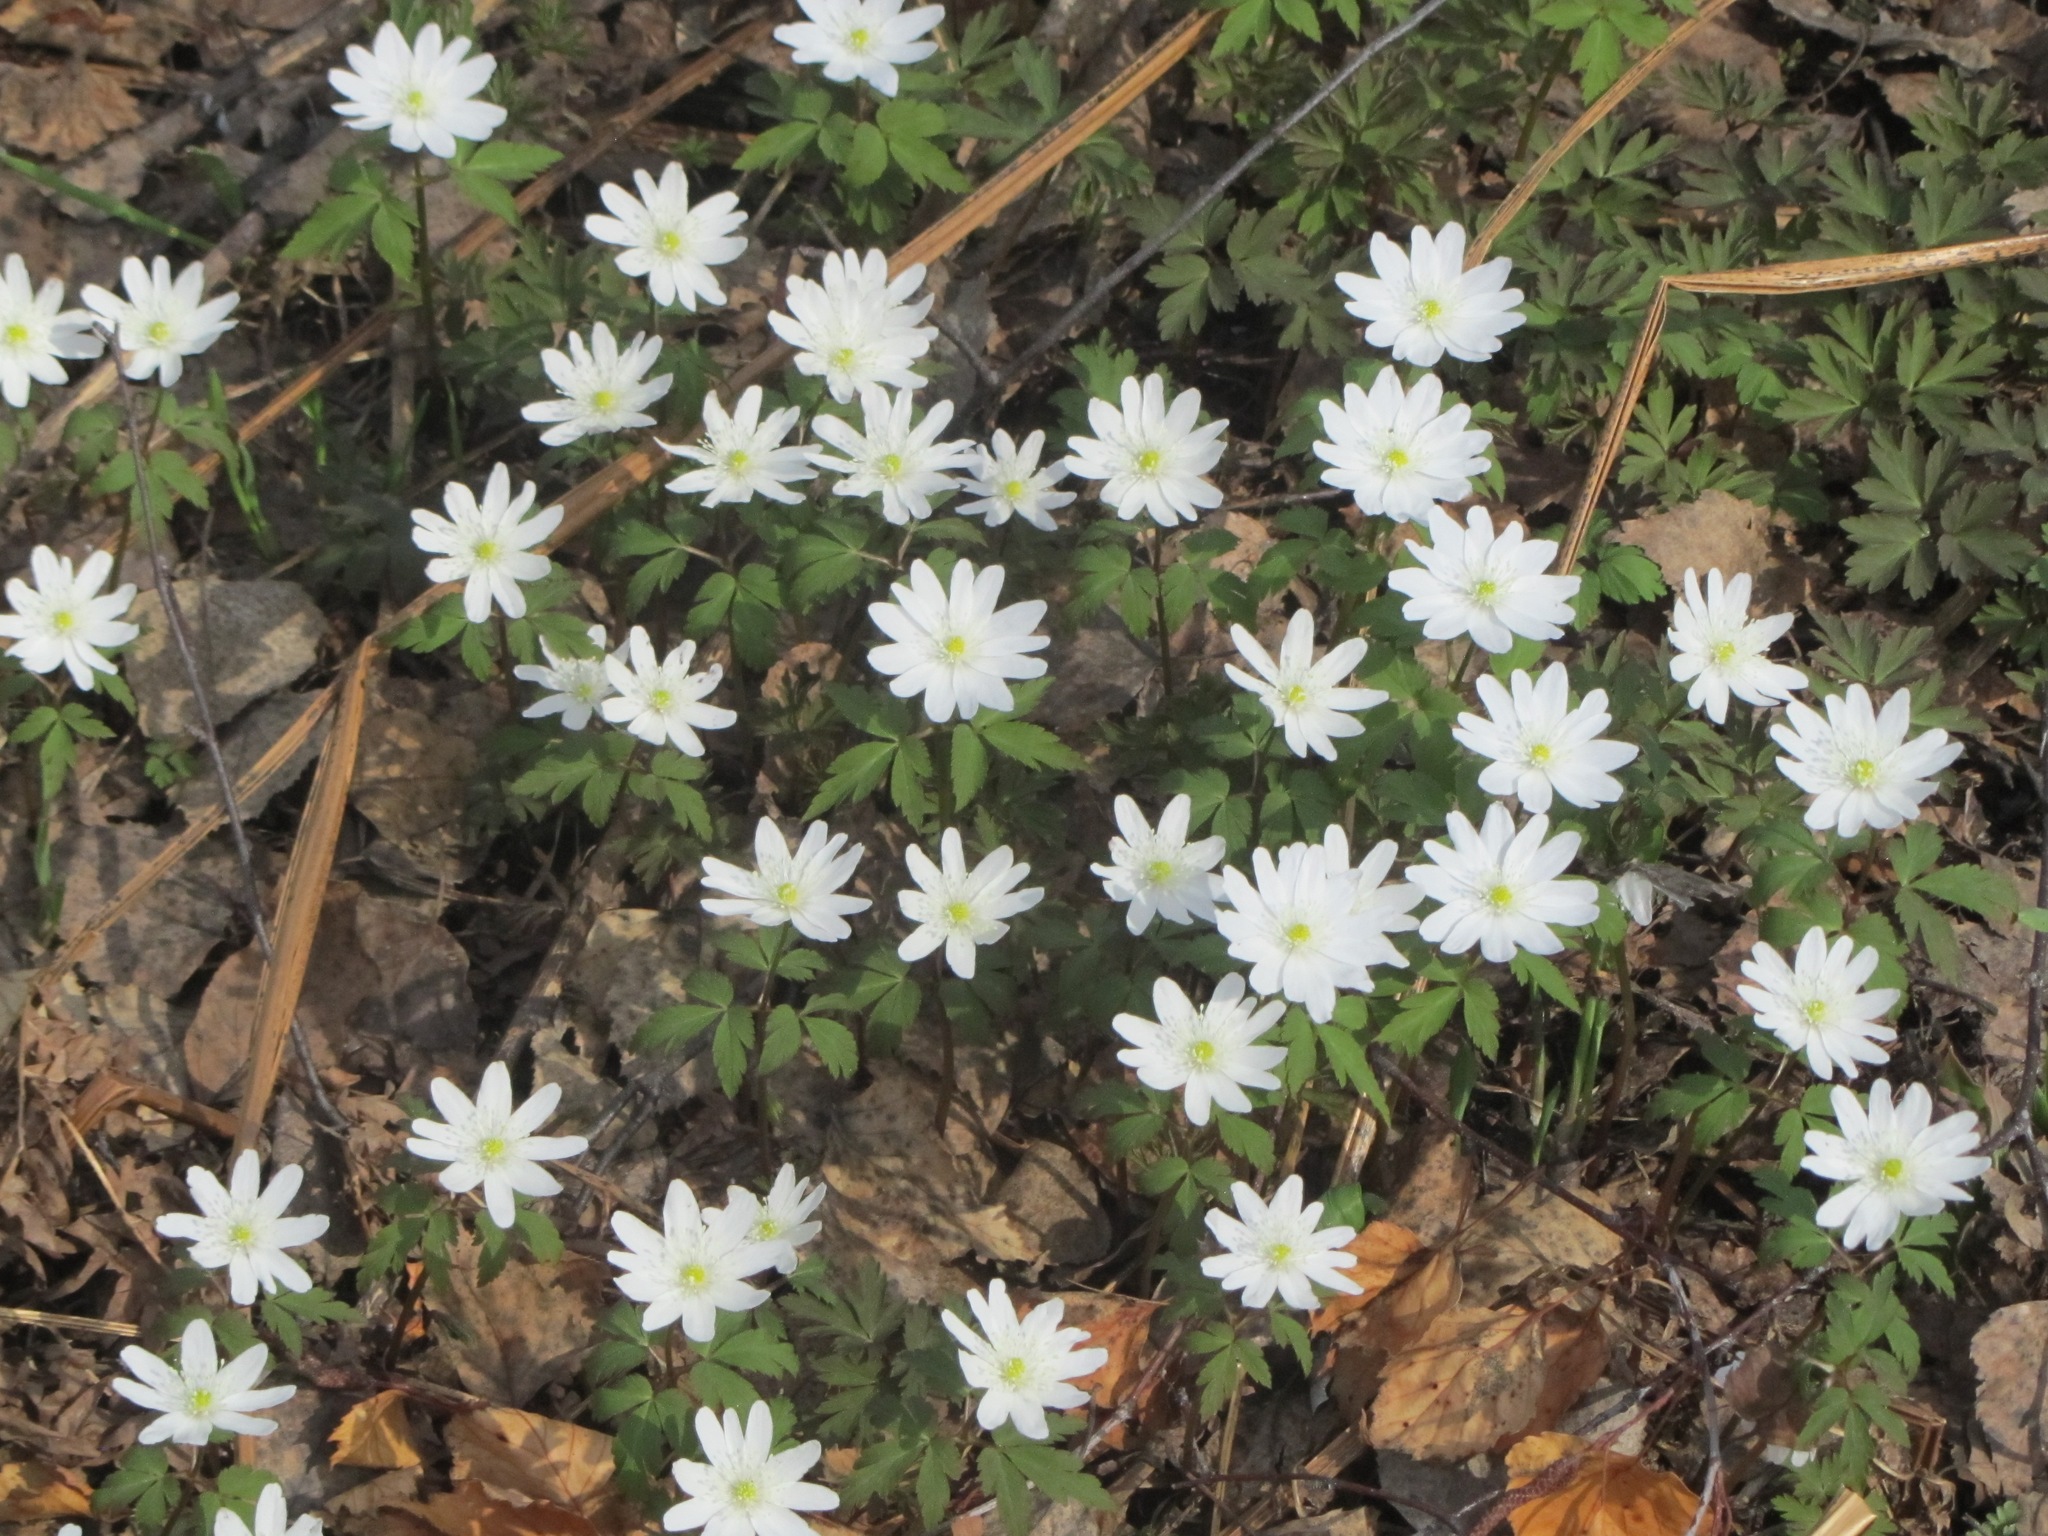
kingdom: Plantae
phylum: Tracheophyta
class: Magnoliopsida
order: Ranunculales
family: Ranunculaceae
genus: Anemone
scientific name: Anemone altaica
